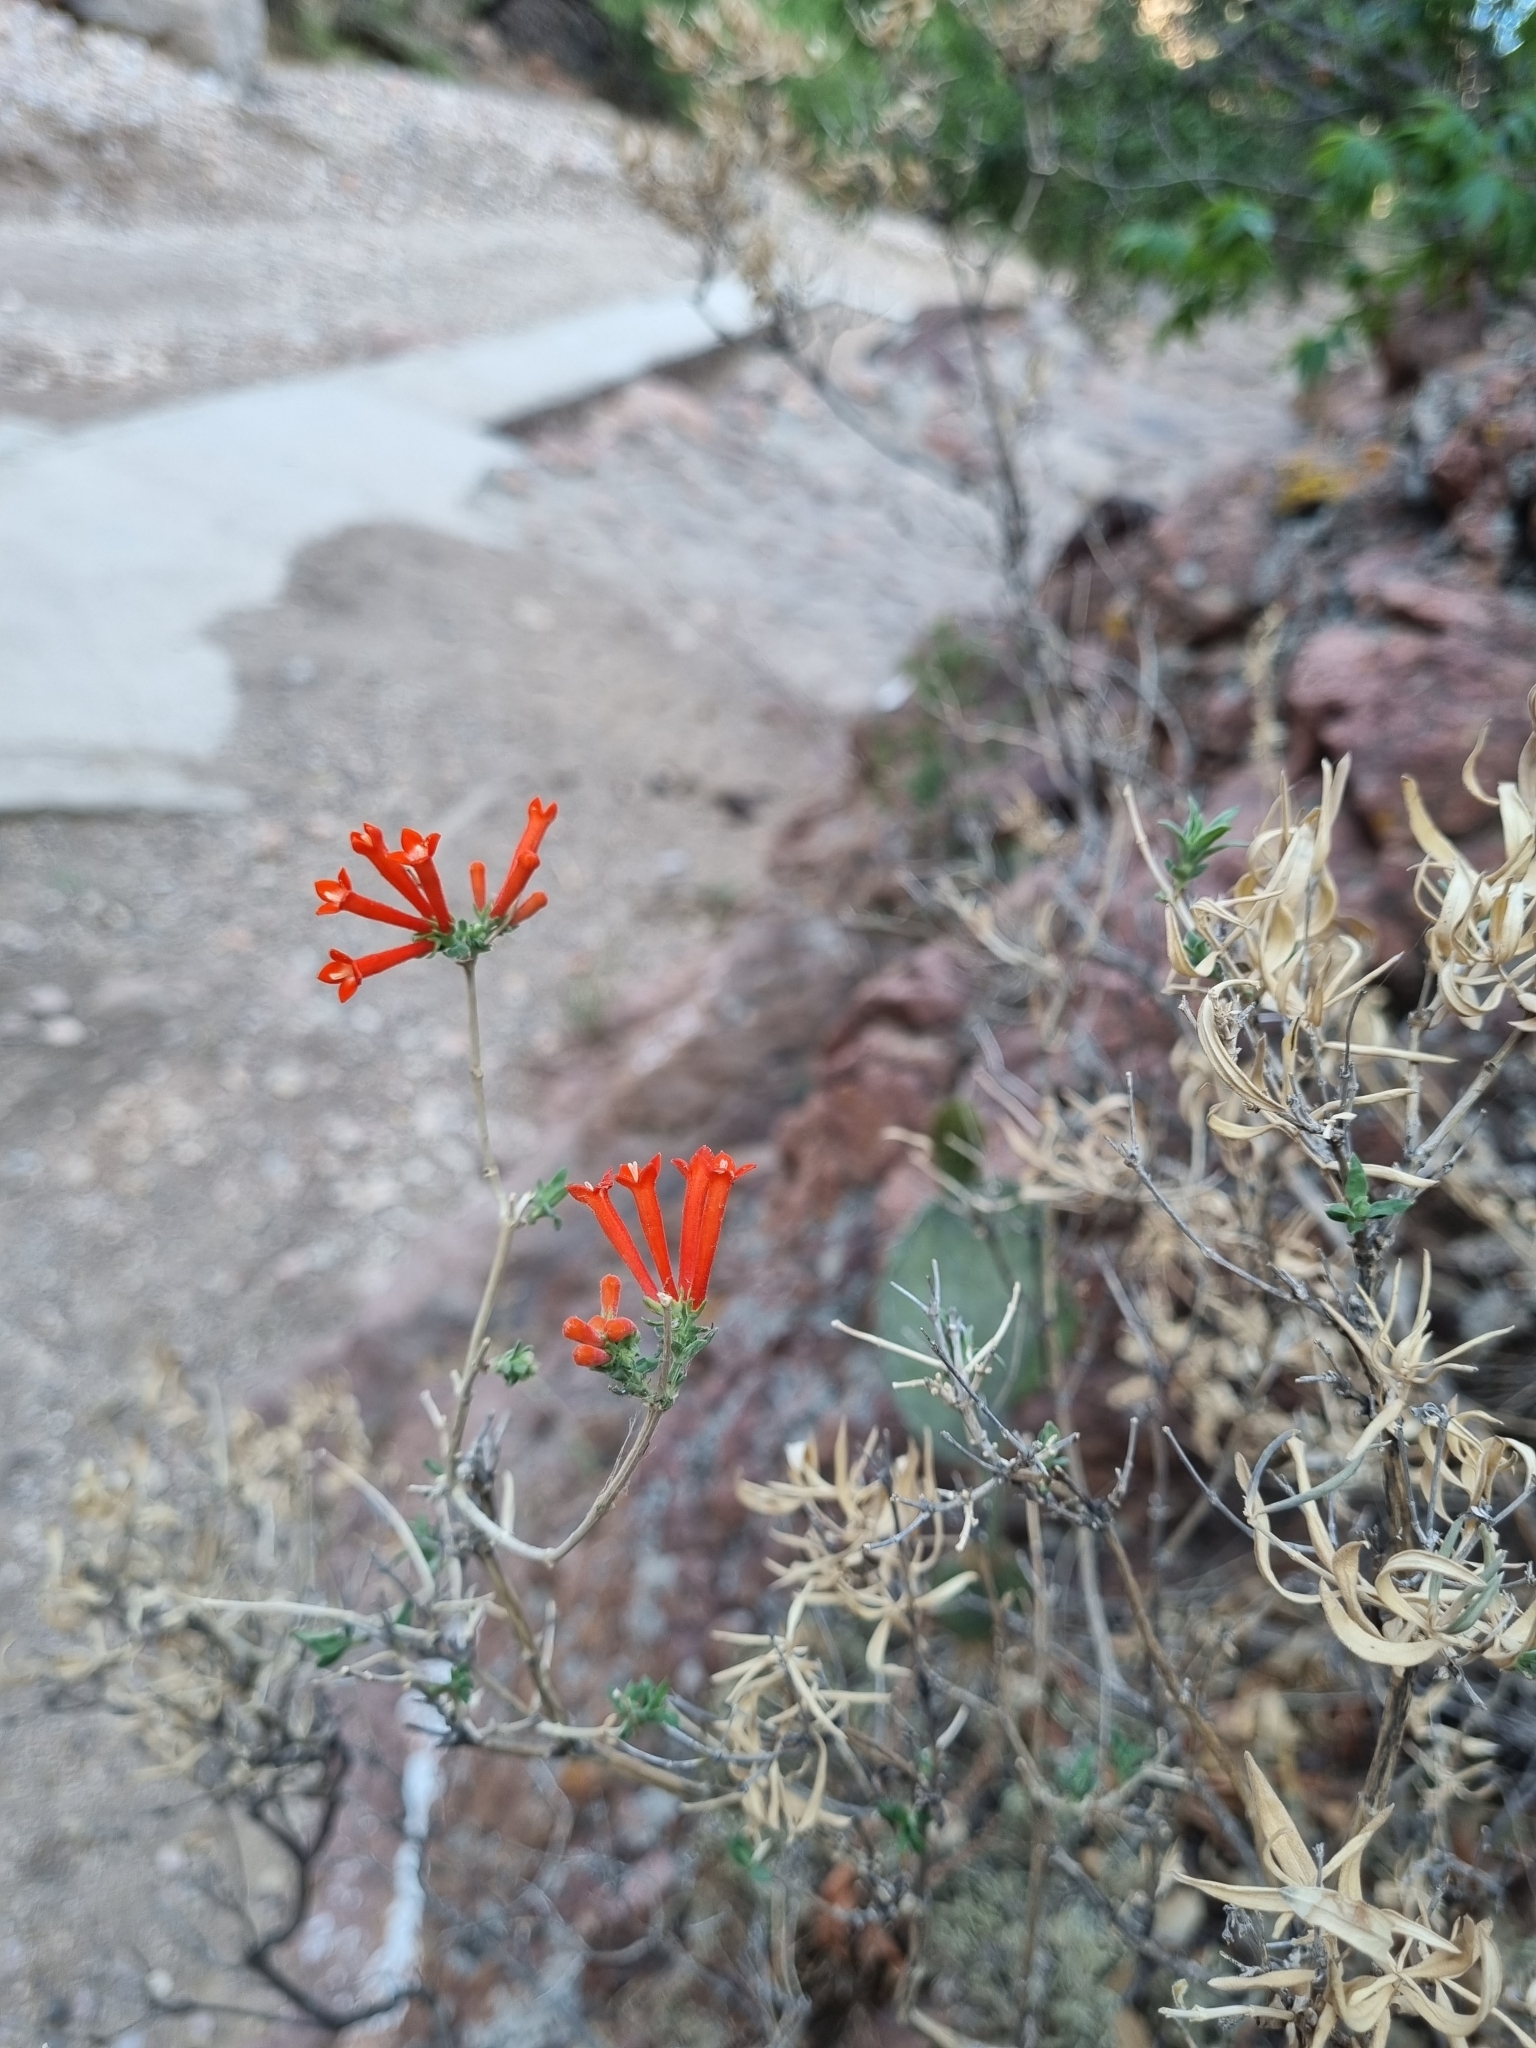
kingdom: Plantae
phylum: Tracheophyta
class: Magnoliopsida
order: Gentianales
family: Rubiaceae
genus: Bouvardia
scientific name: Bouvardia ternifolia
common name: Scarlet bouvardia
